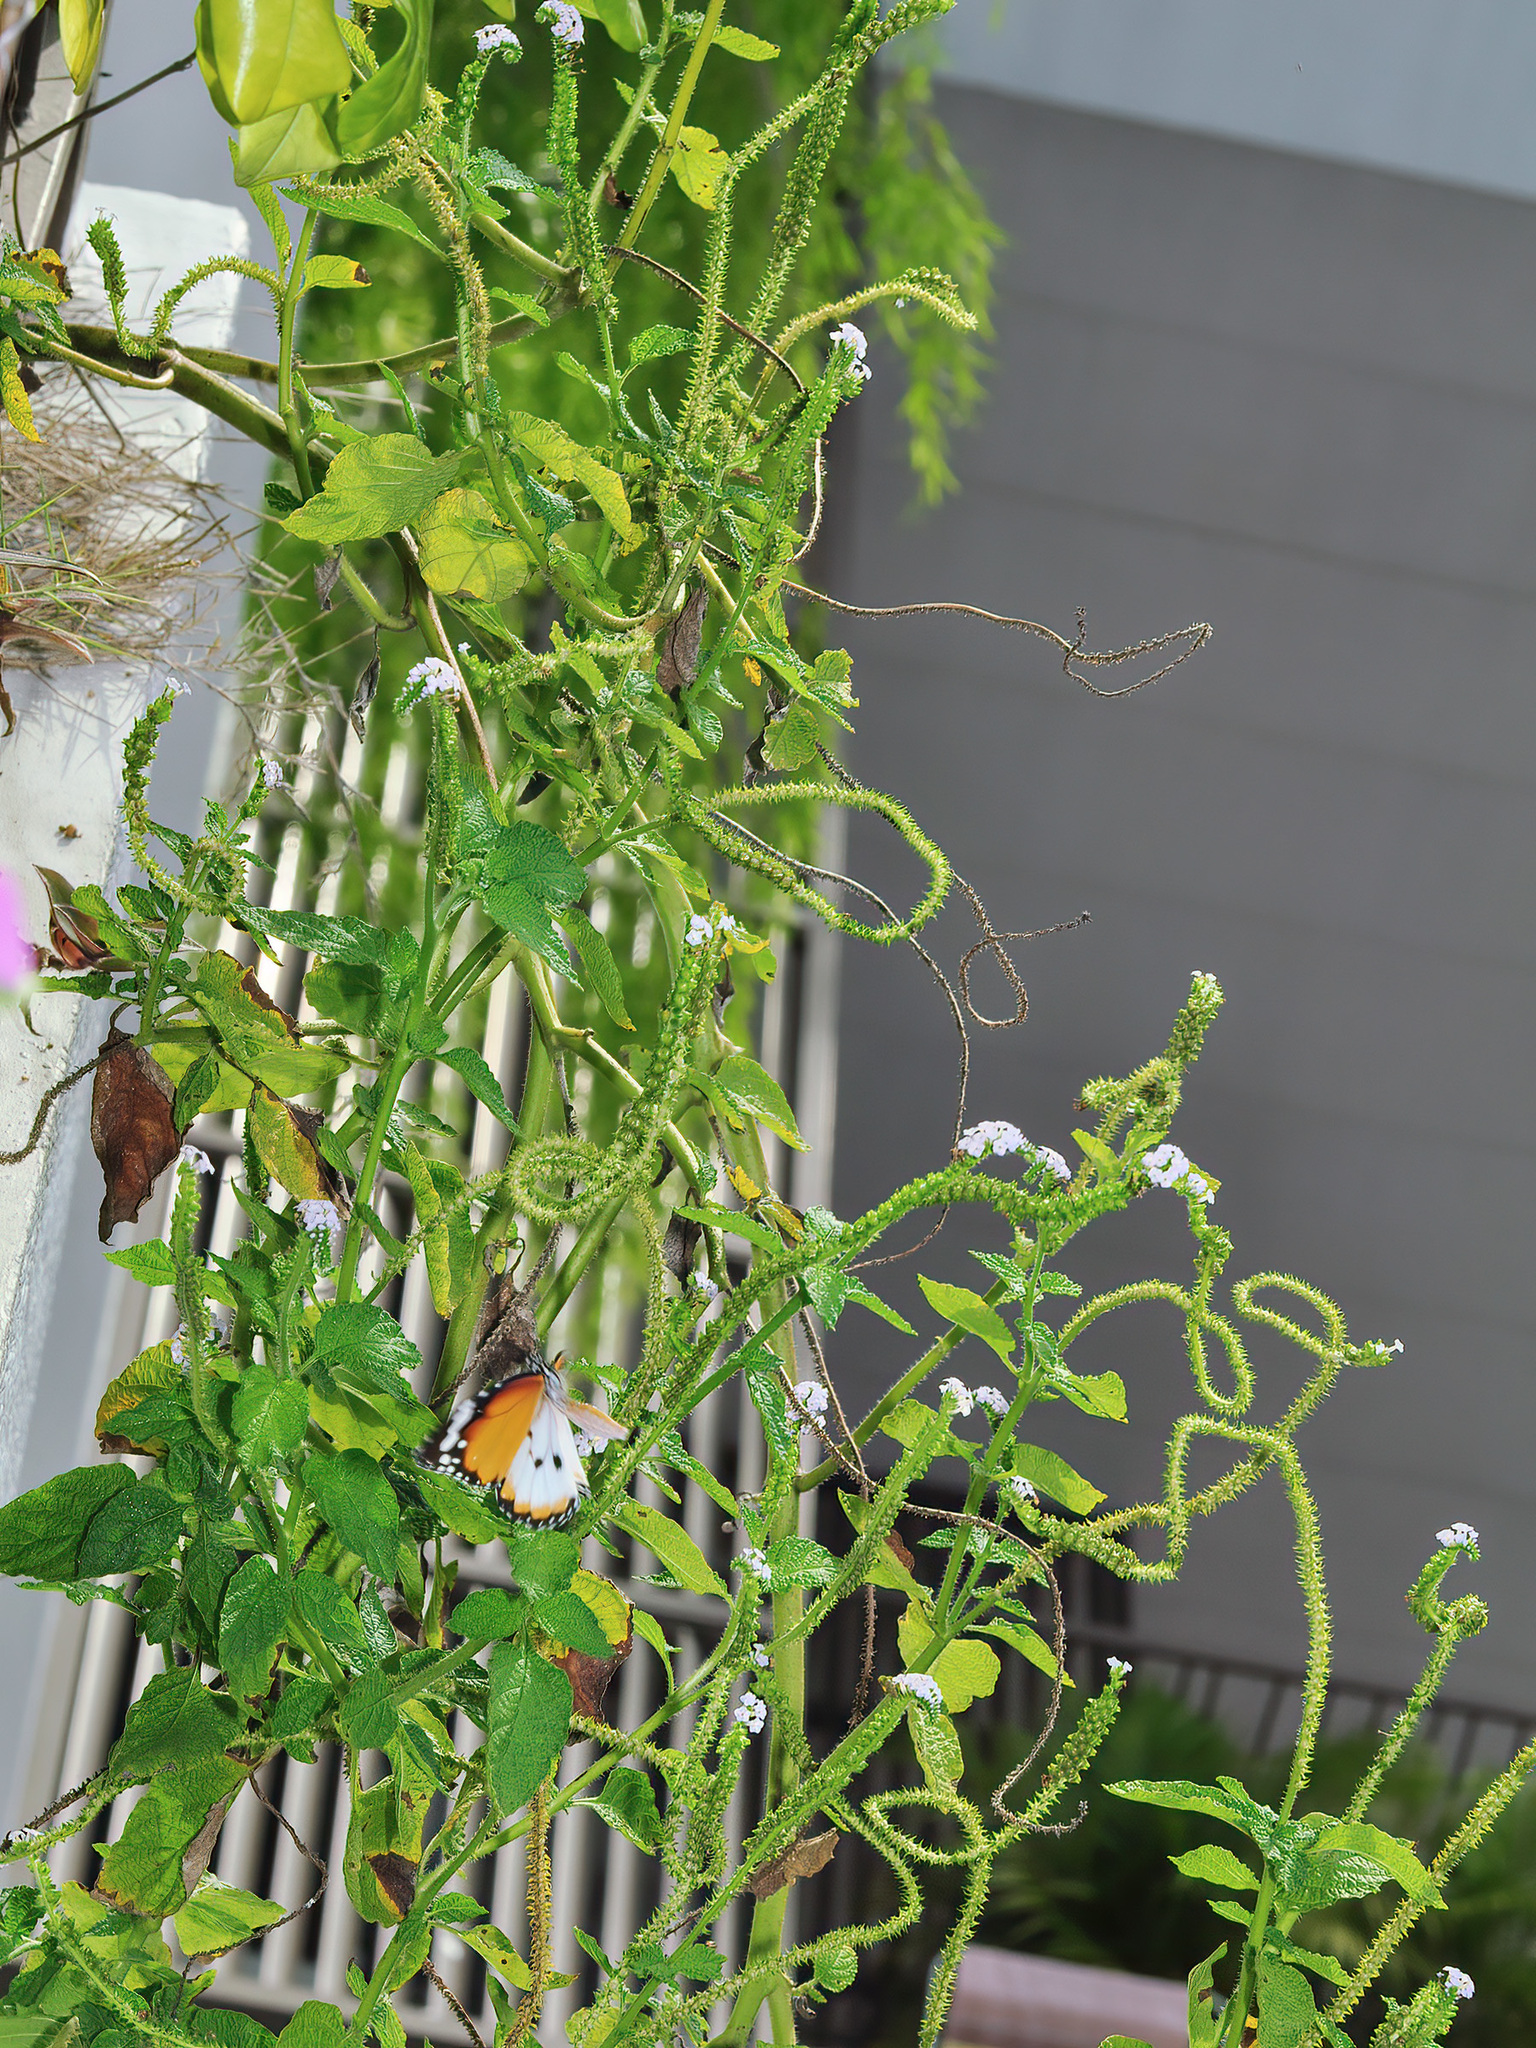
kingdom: Plantae
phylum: Tracheophyta
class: Magnoliopsida
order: Boraginales
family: Heliotropiaceae
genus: Heliotropium
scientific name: Heliotropium indicum
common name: Indian heliotrope
